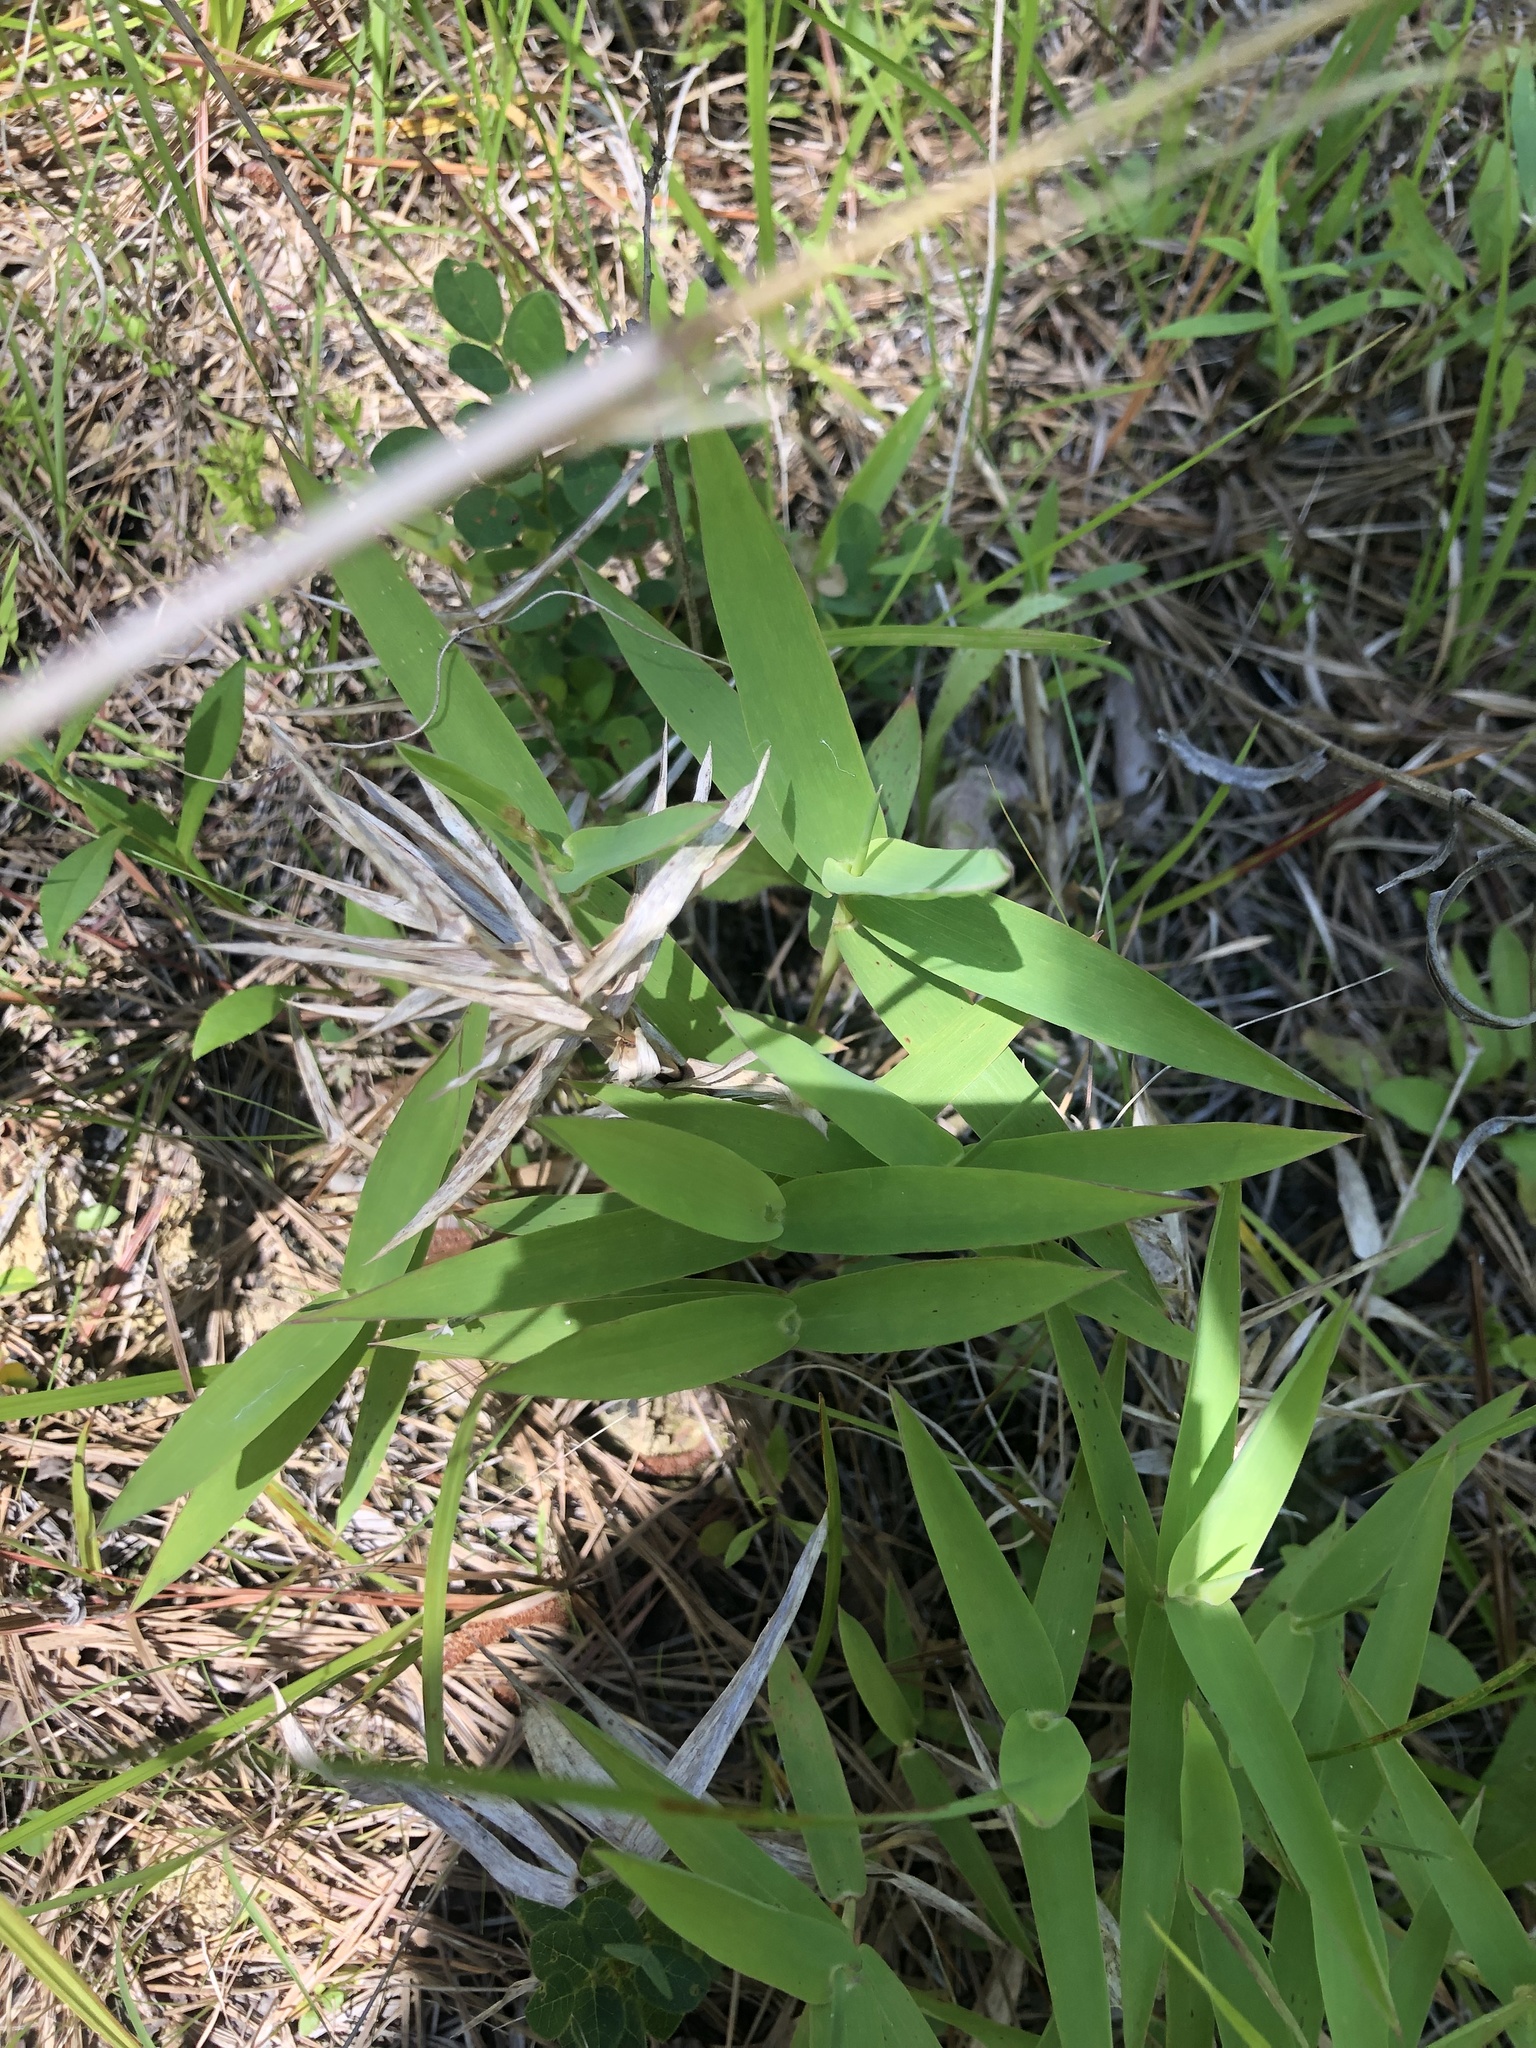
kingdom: Plantae
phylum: Tracheophyta
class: Liliopsida
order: Poales
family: Poaceae
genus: Gymnopogon
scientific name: Gymnopogon ambiguus
